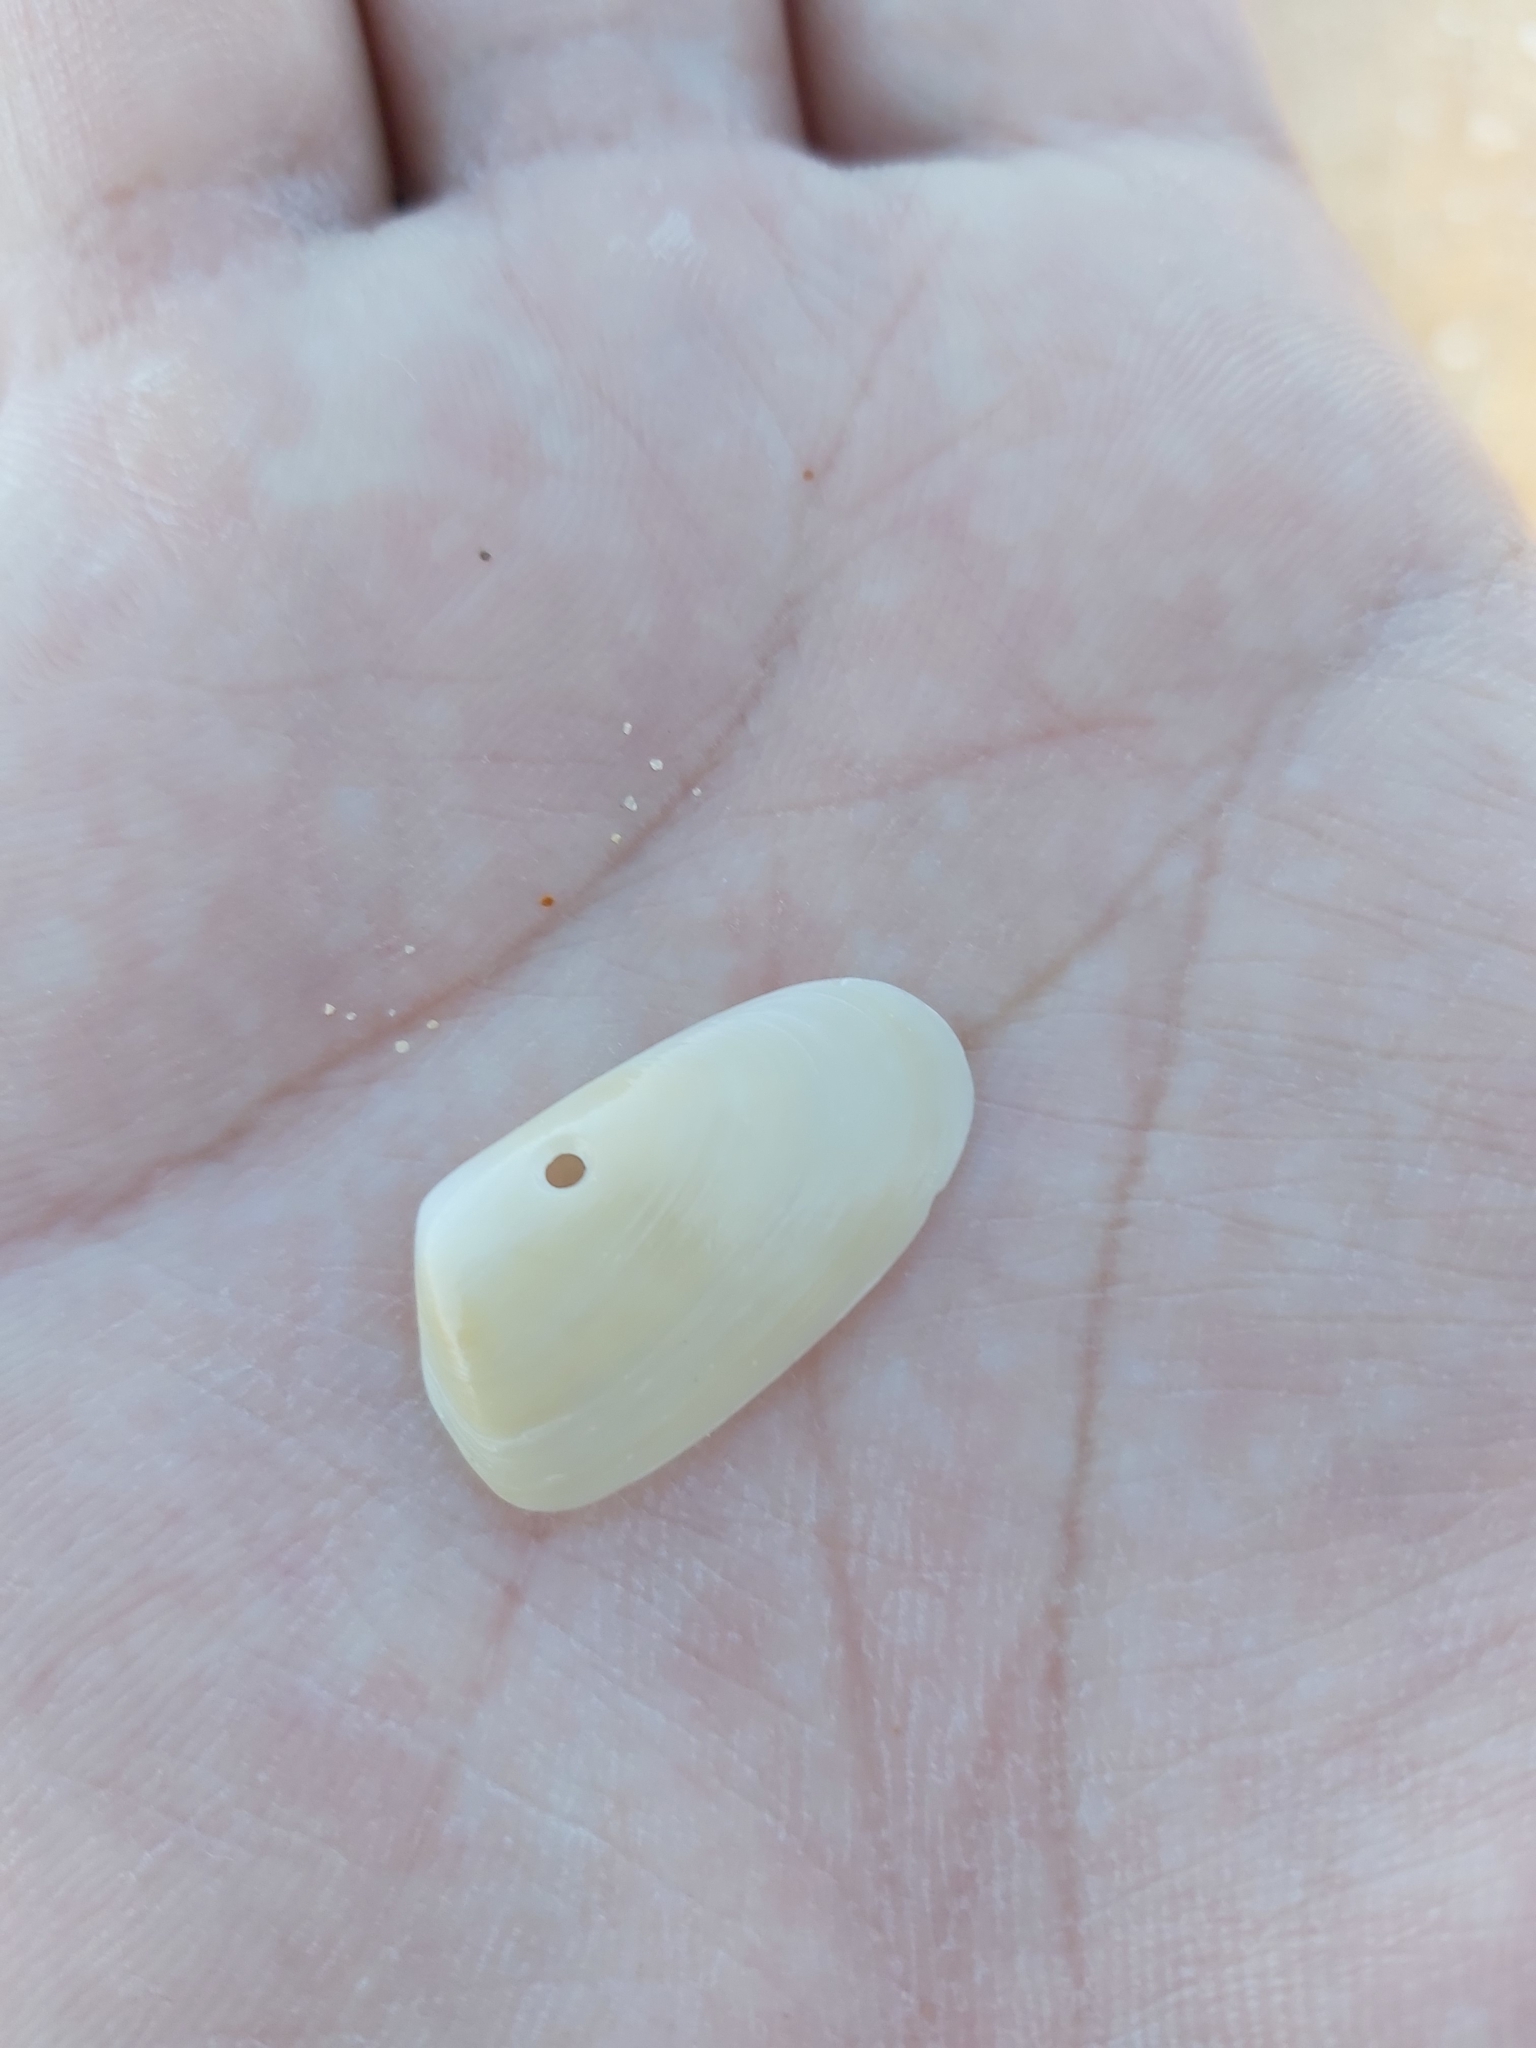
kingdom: Animalia
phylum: Mollusca
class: Bivalvia
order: Venerida
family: Mesodesmatidae
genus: Paphies
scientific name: Paphies angusta
